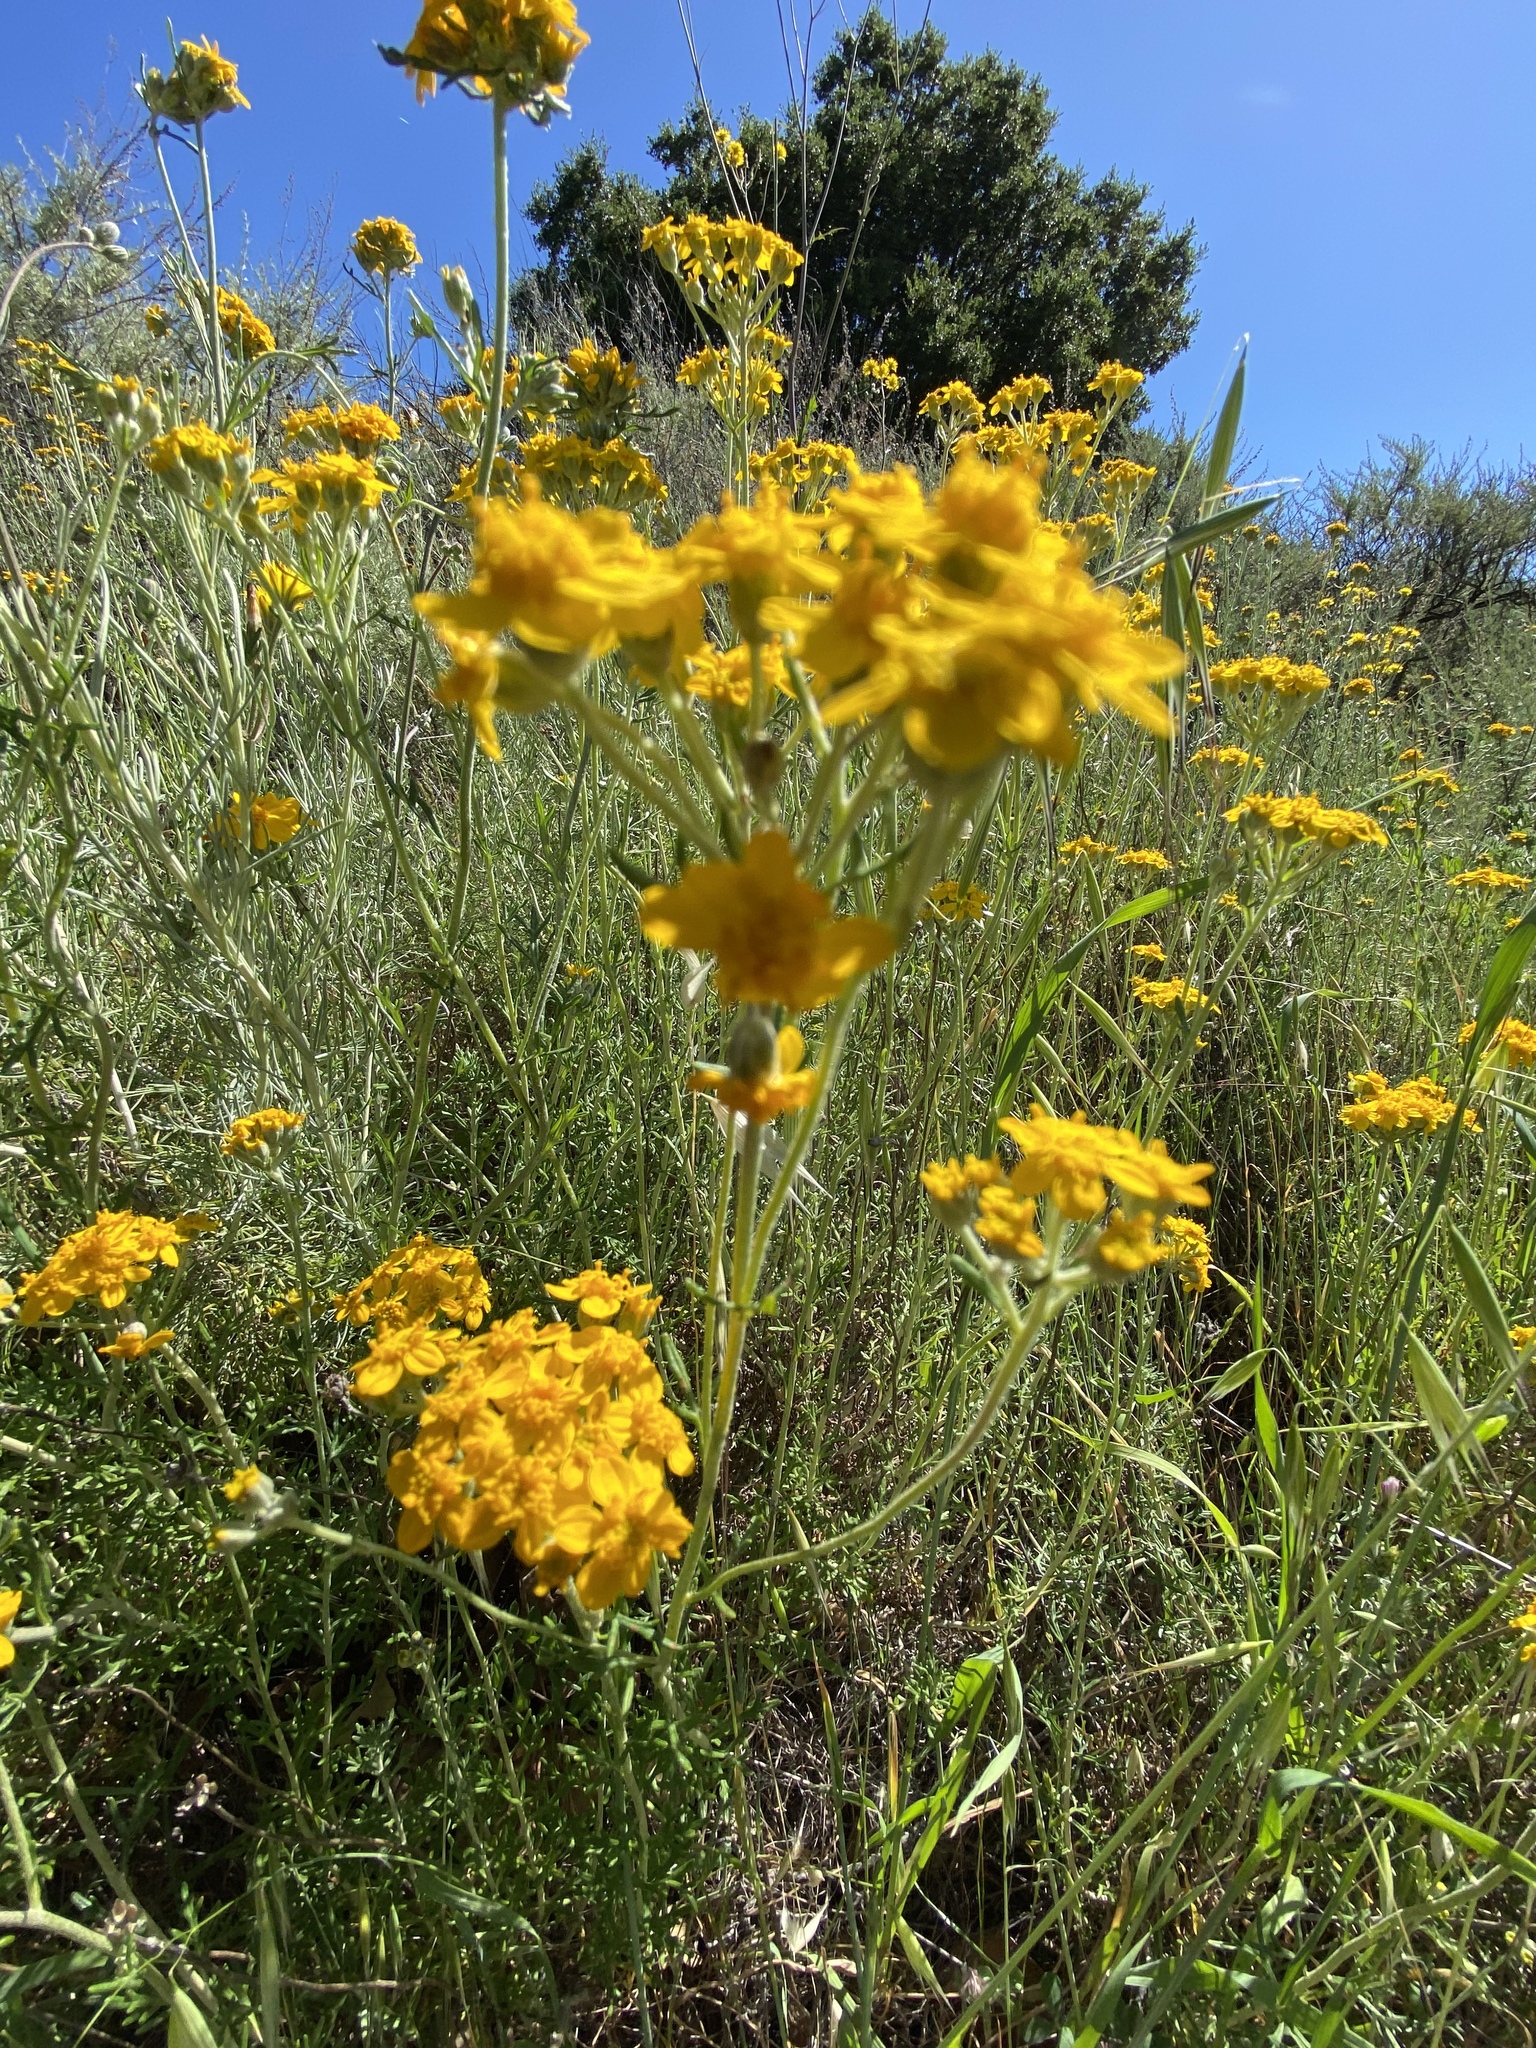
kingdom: Plantae
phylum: Tracheophyta
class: Magnoliopsida
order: Asterales
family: Asteraceae
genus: Eriophyllum
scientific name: Eriophyllum confertiflorum
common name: Golden-yarrow
